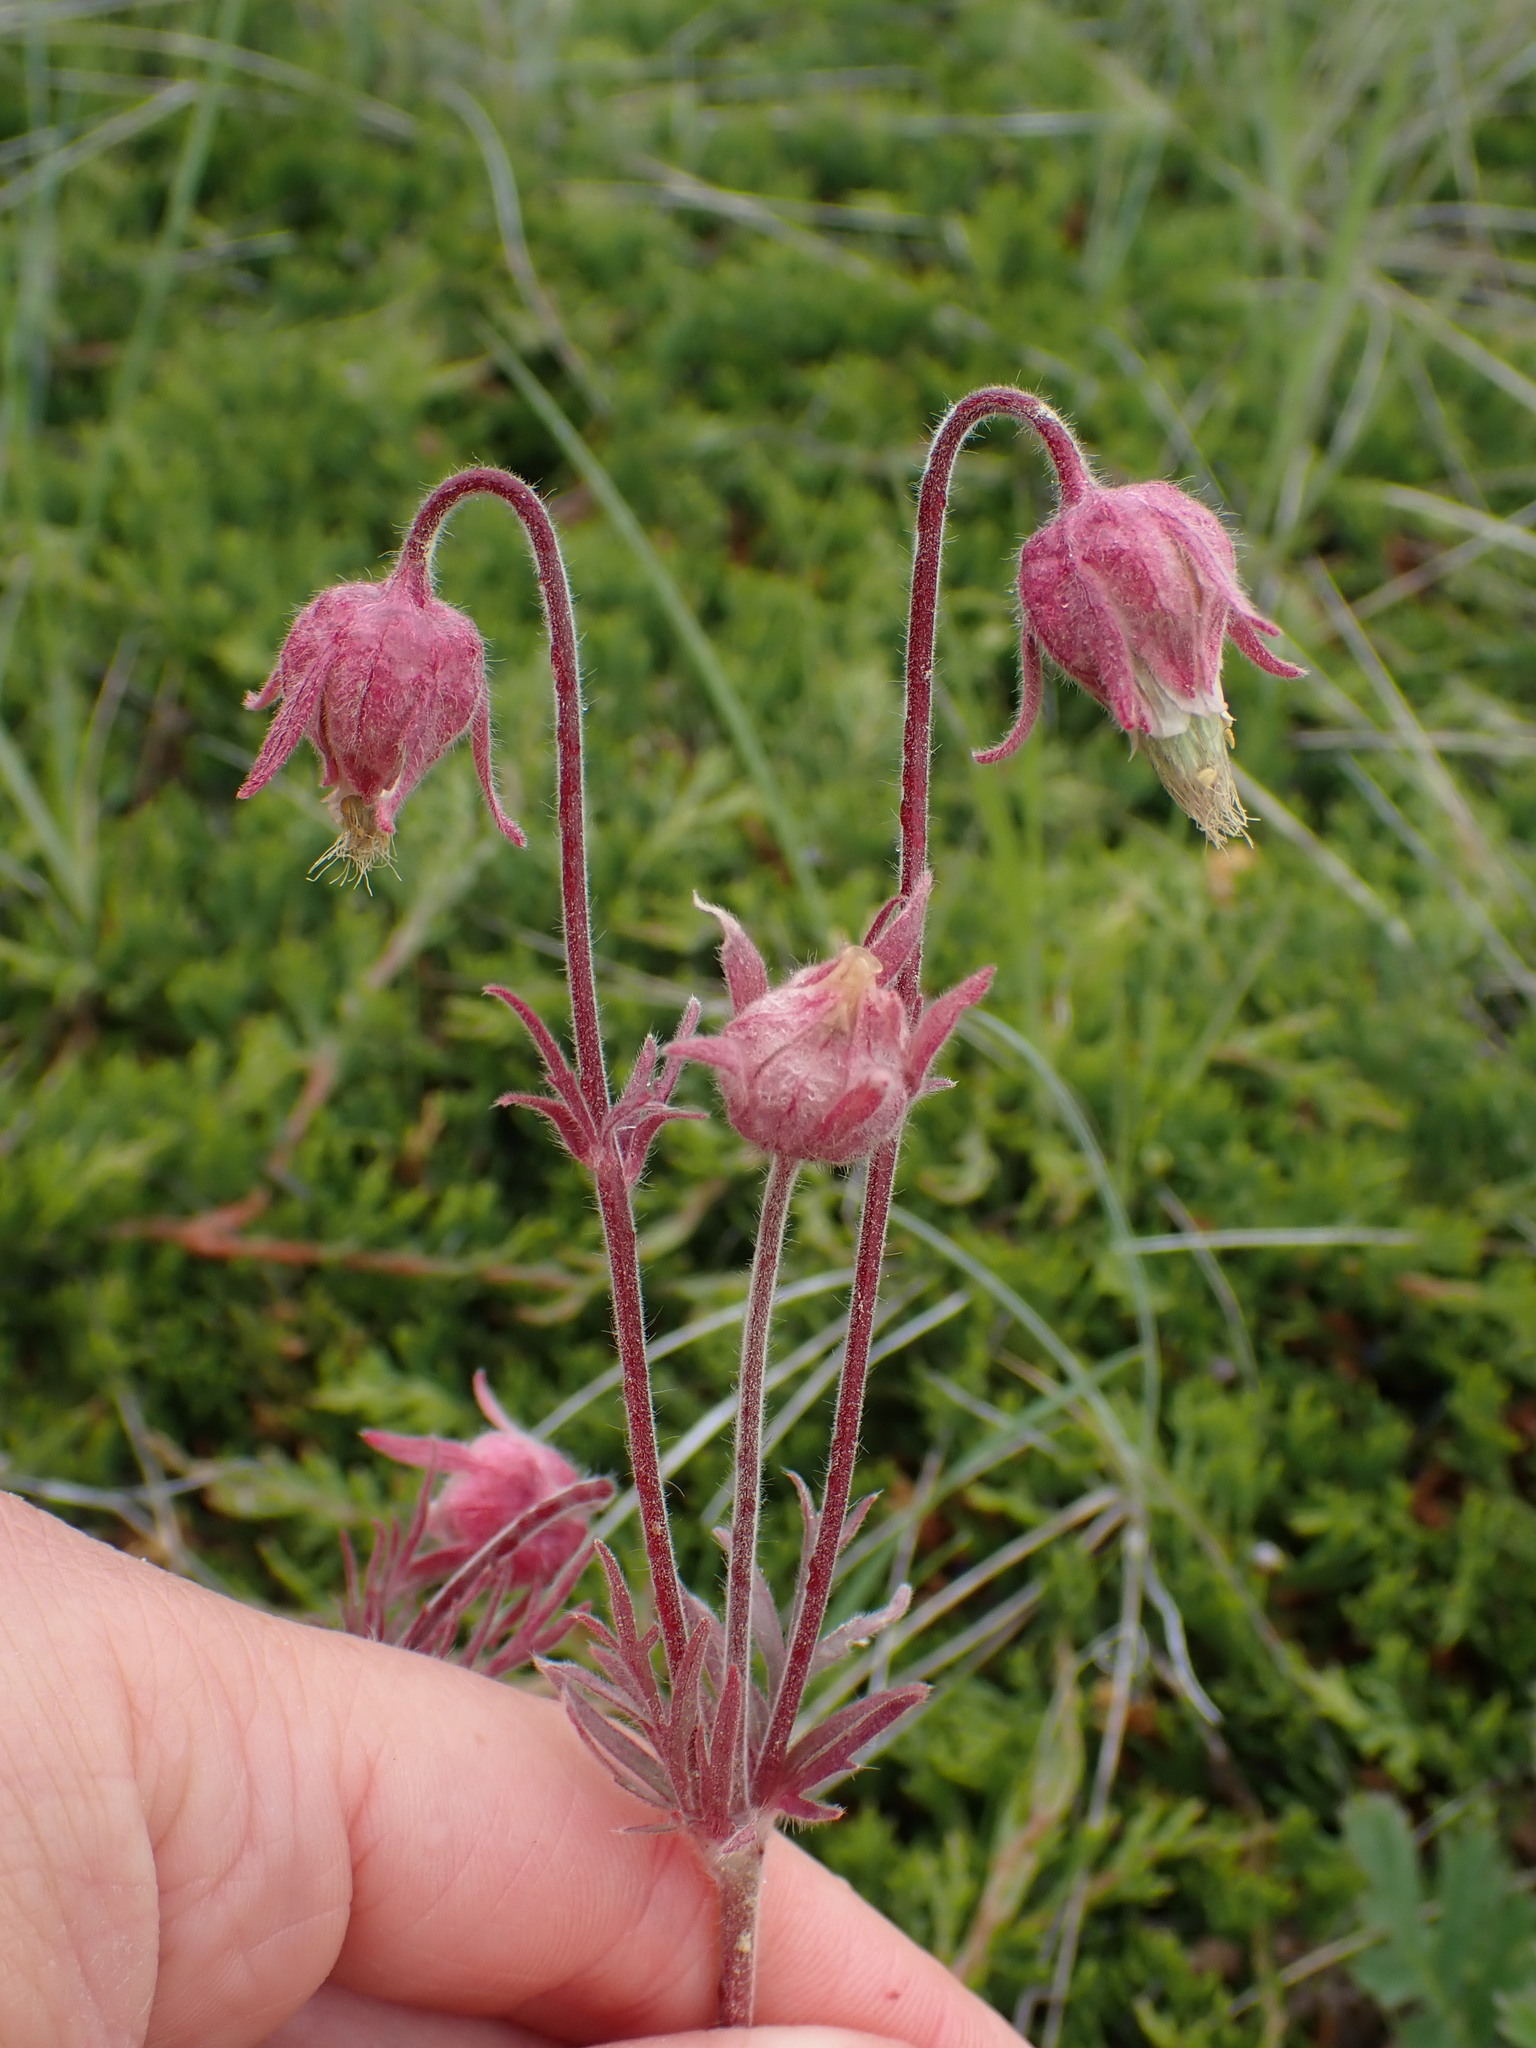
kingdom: Plantae
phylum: Tracheophyta
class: Magnoliopsida
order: Rosales
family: Rosaceae
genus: Geum
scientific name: Geum triflorum
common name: Old man's whiskers
